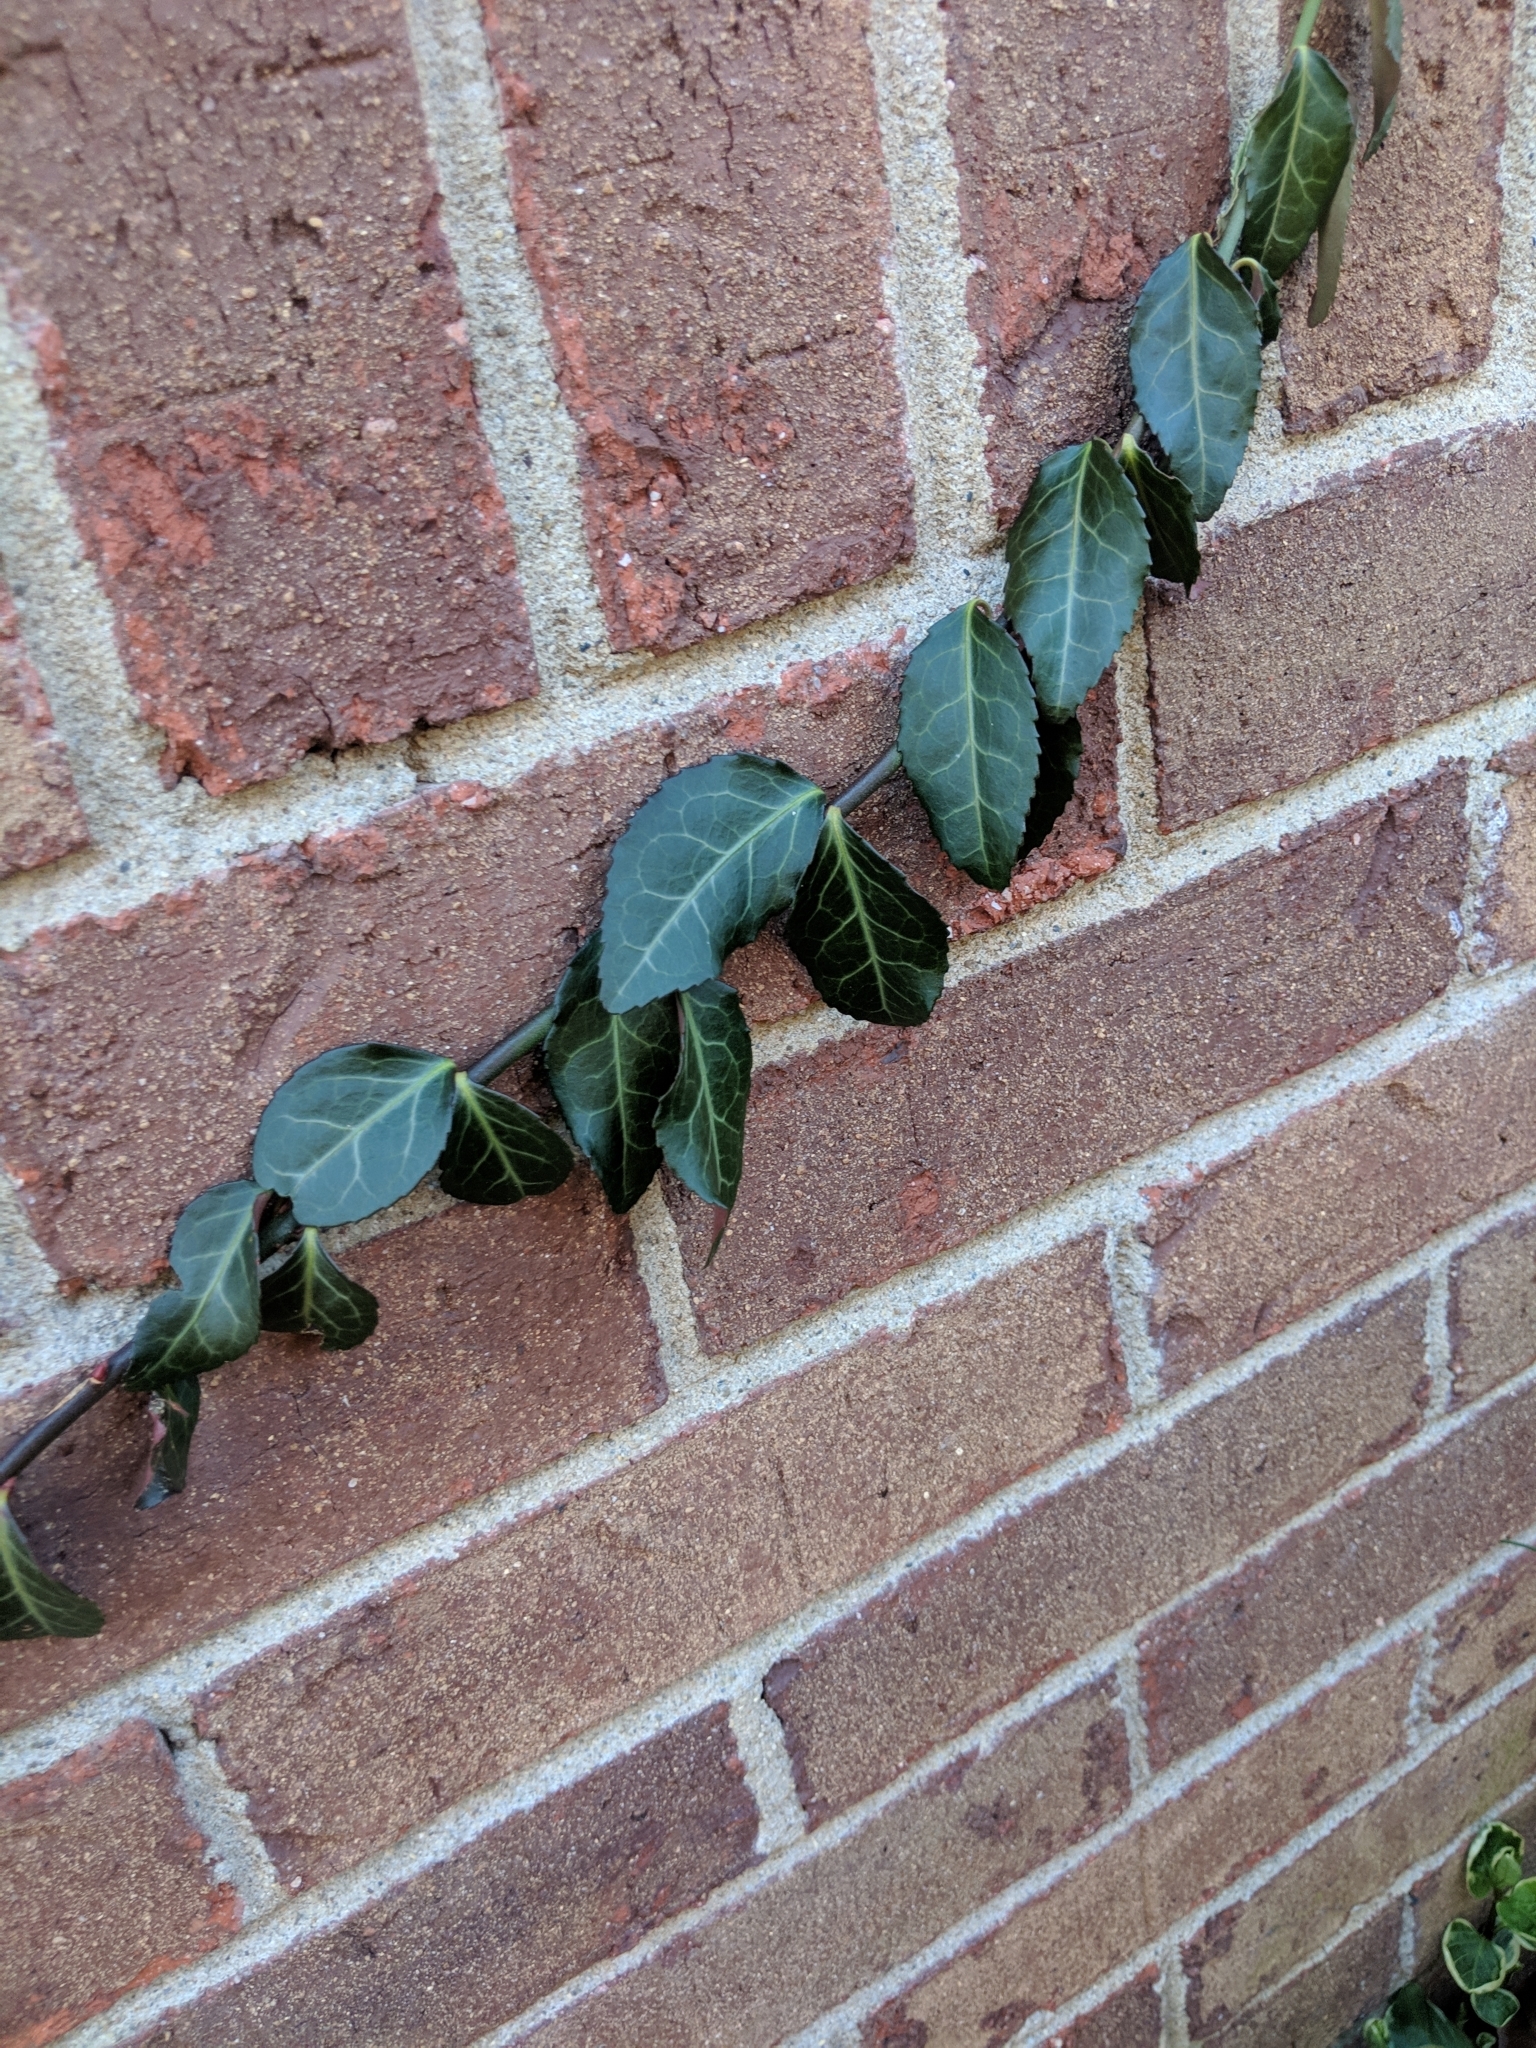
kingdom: Plantae
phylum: Tracheophyta
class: Magnoliopsida
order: Celastrales
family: Celastraceae
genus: Euonymus
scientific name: Euonymus fortunei
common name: Climbing euonymus
